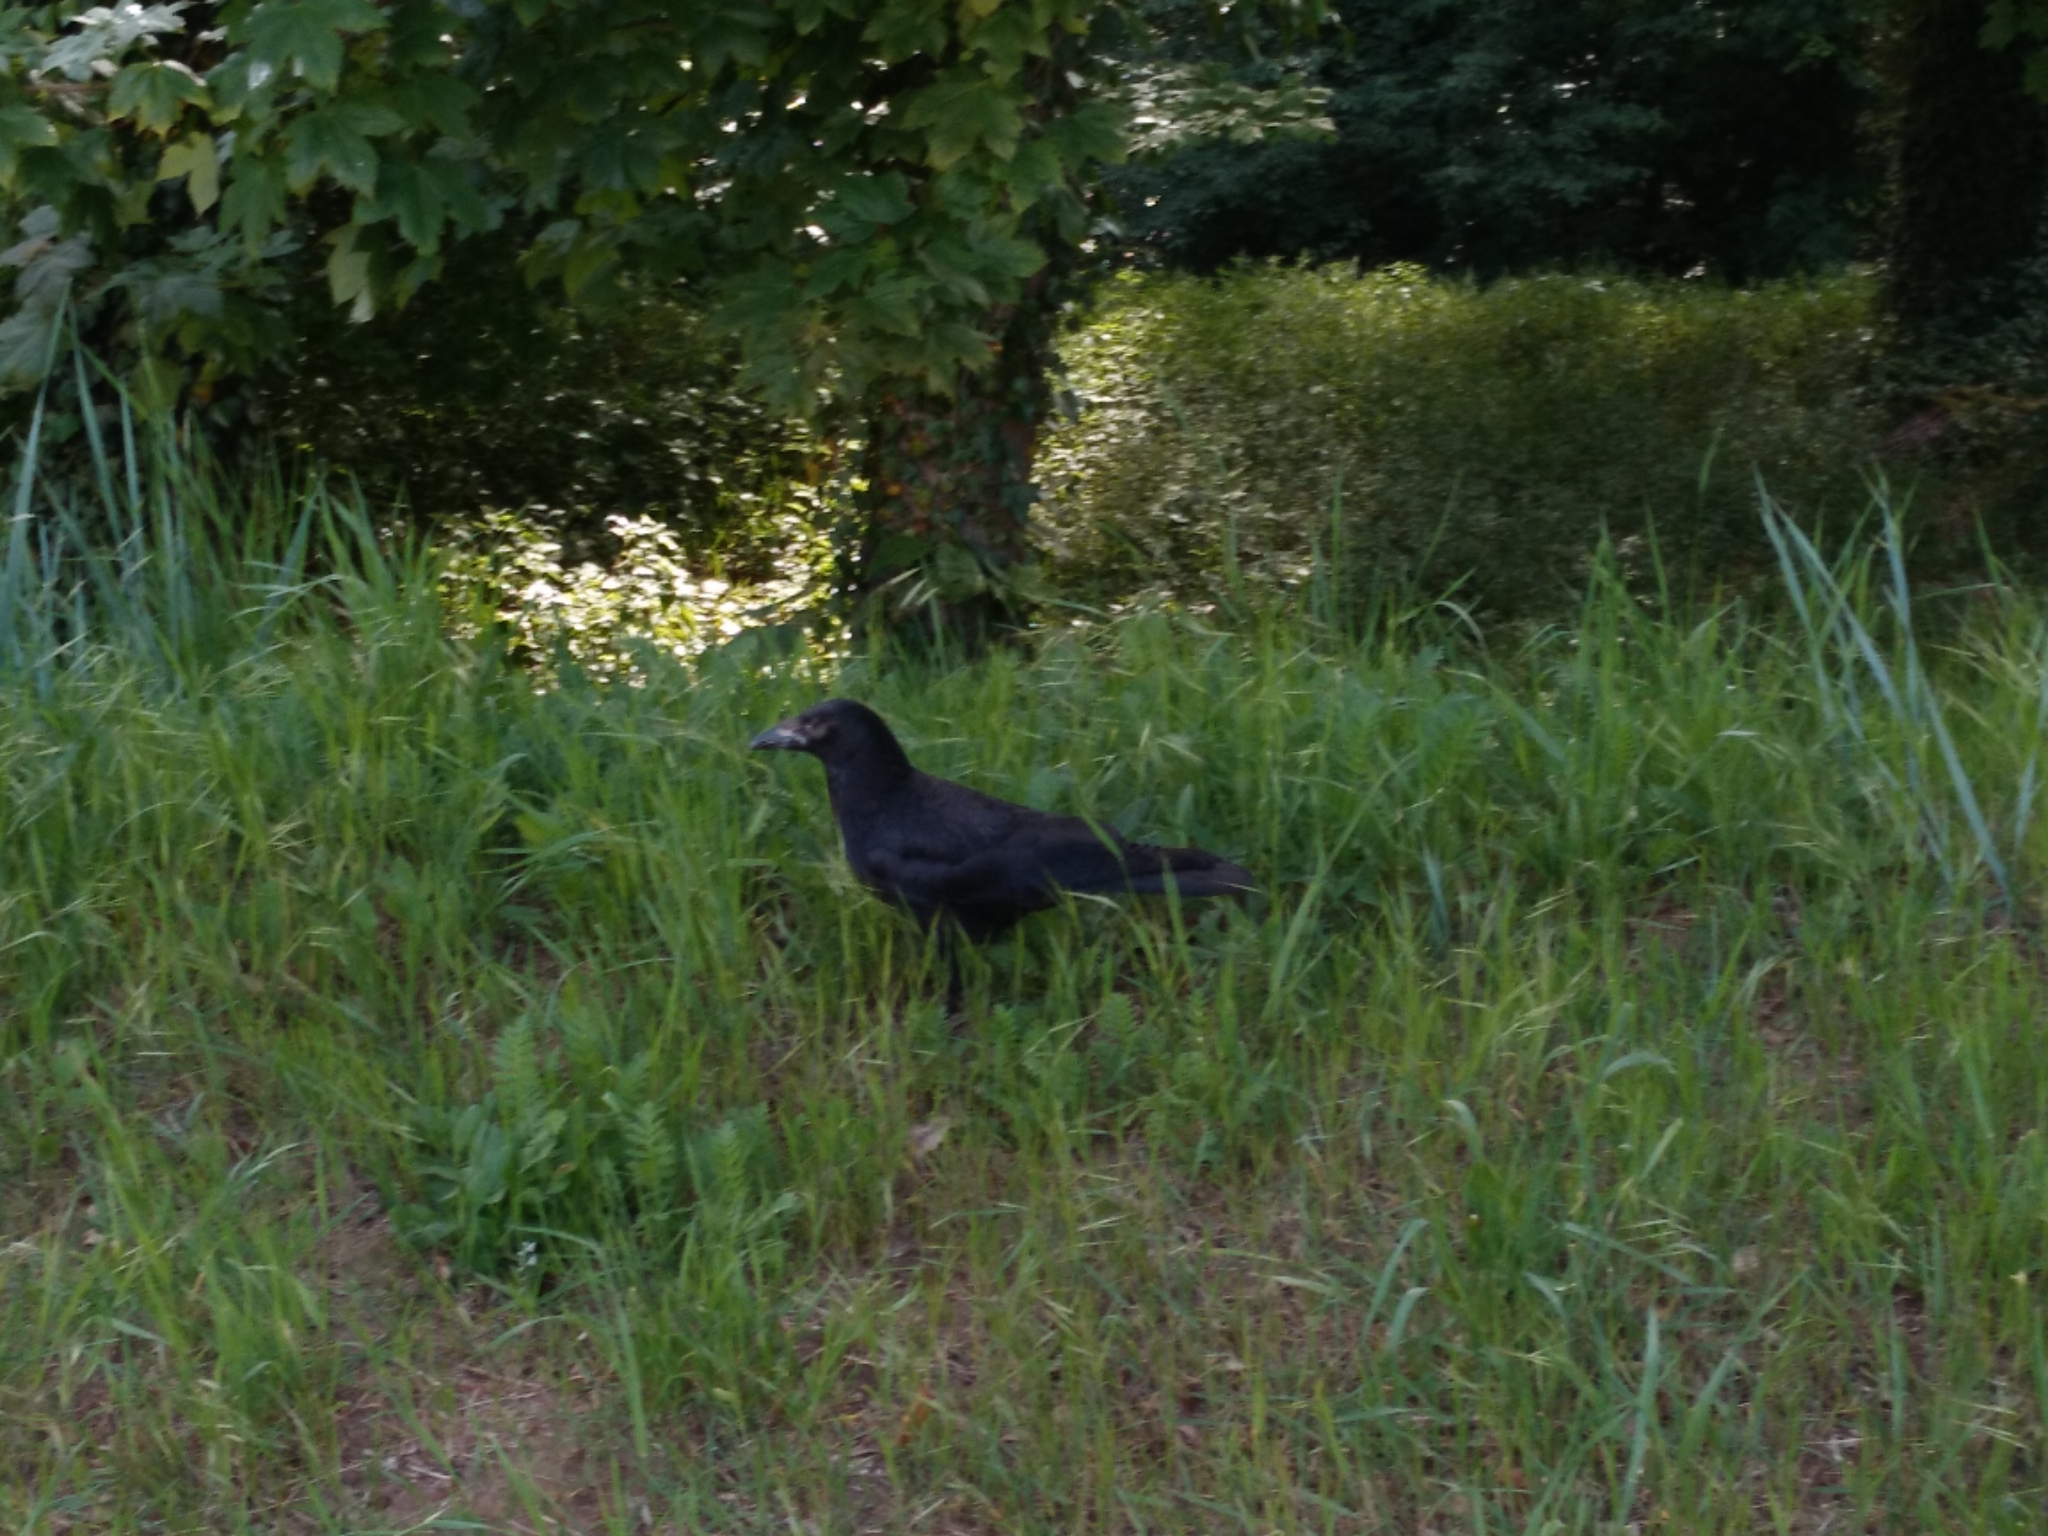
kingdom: Animalia
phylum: Chordata
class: Aves
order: Passeriformes
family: Corvidae
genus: Corvus
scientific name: Corvus corone
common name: Carrion crow
